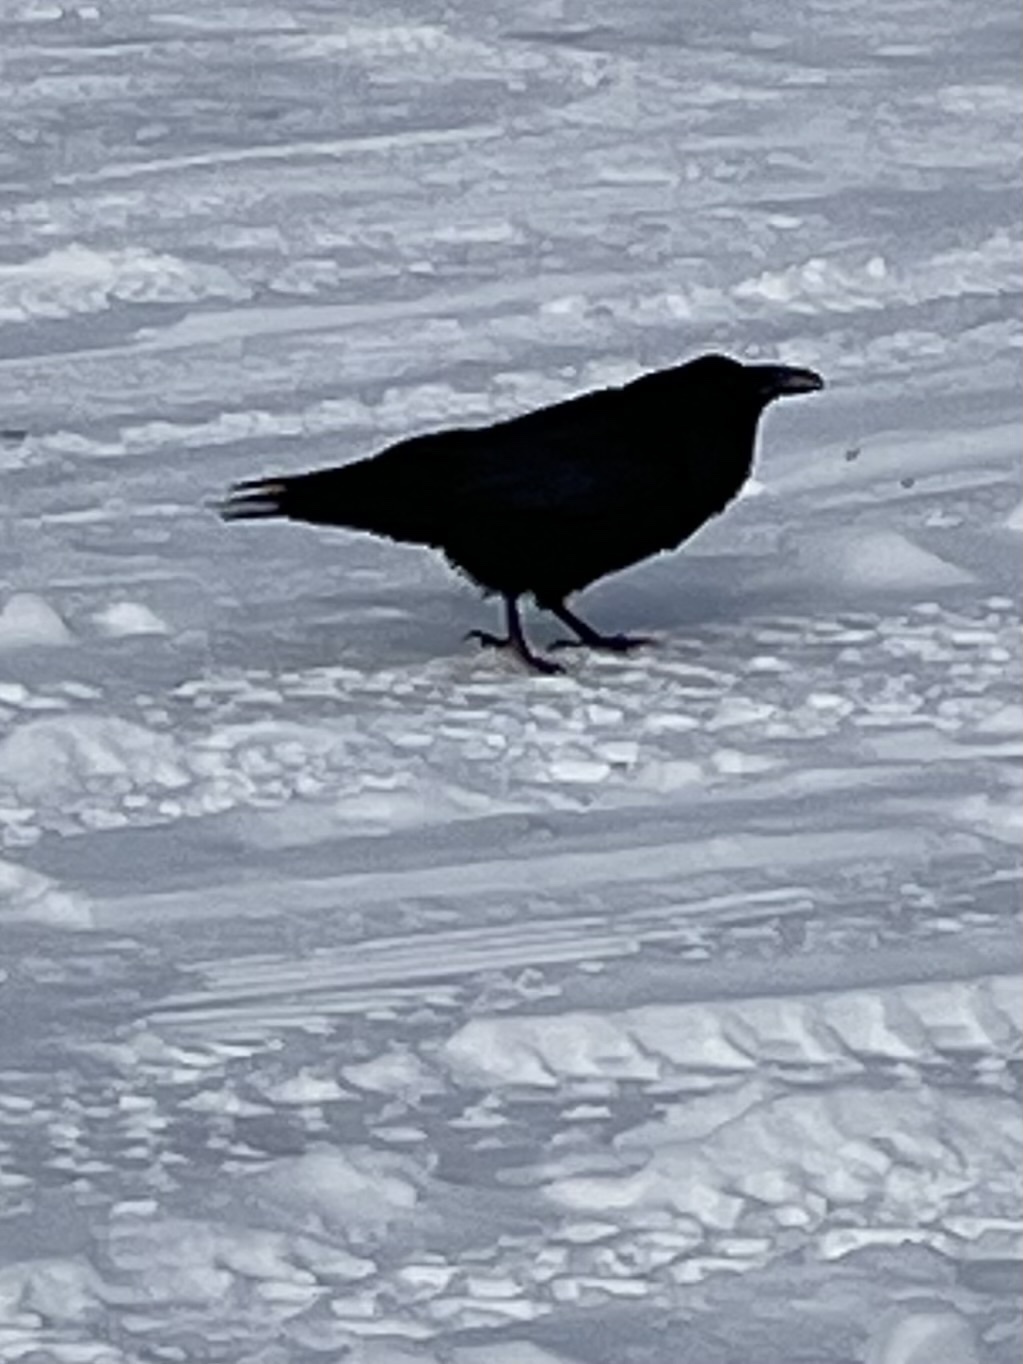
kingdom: Animalia
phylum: Chordata
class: Aves
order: Passeriformes
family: Corvidae
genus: Corvus
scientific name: Corvus corax
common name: Common raven
